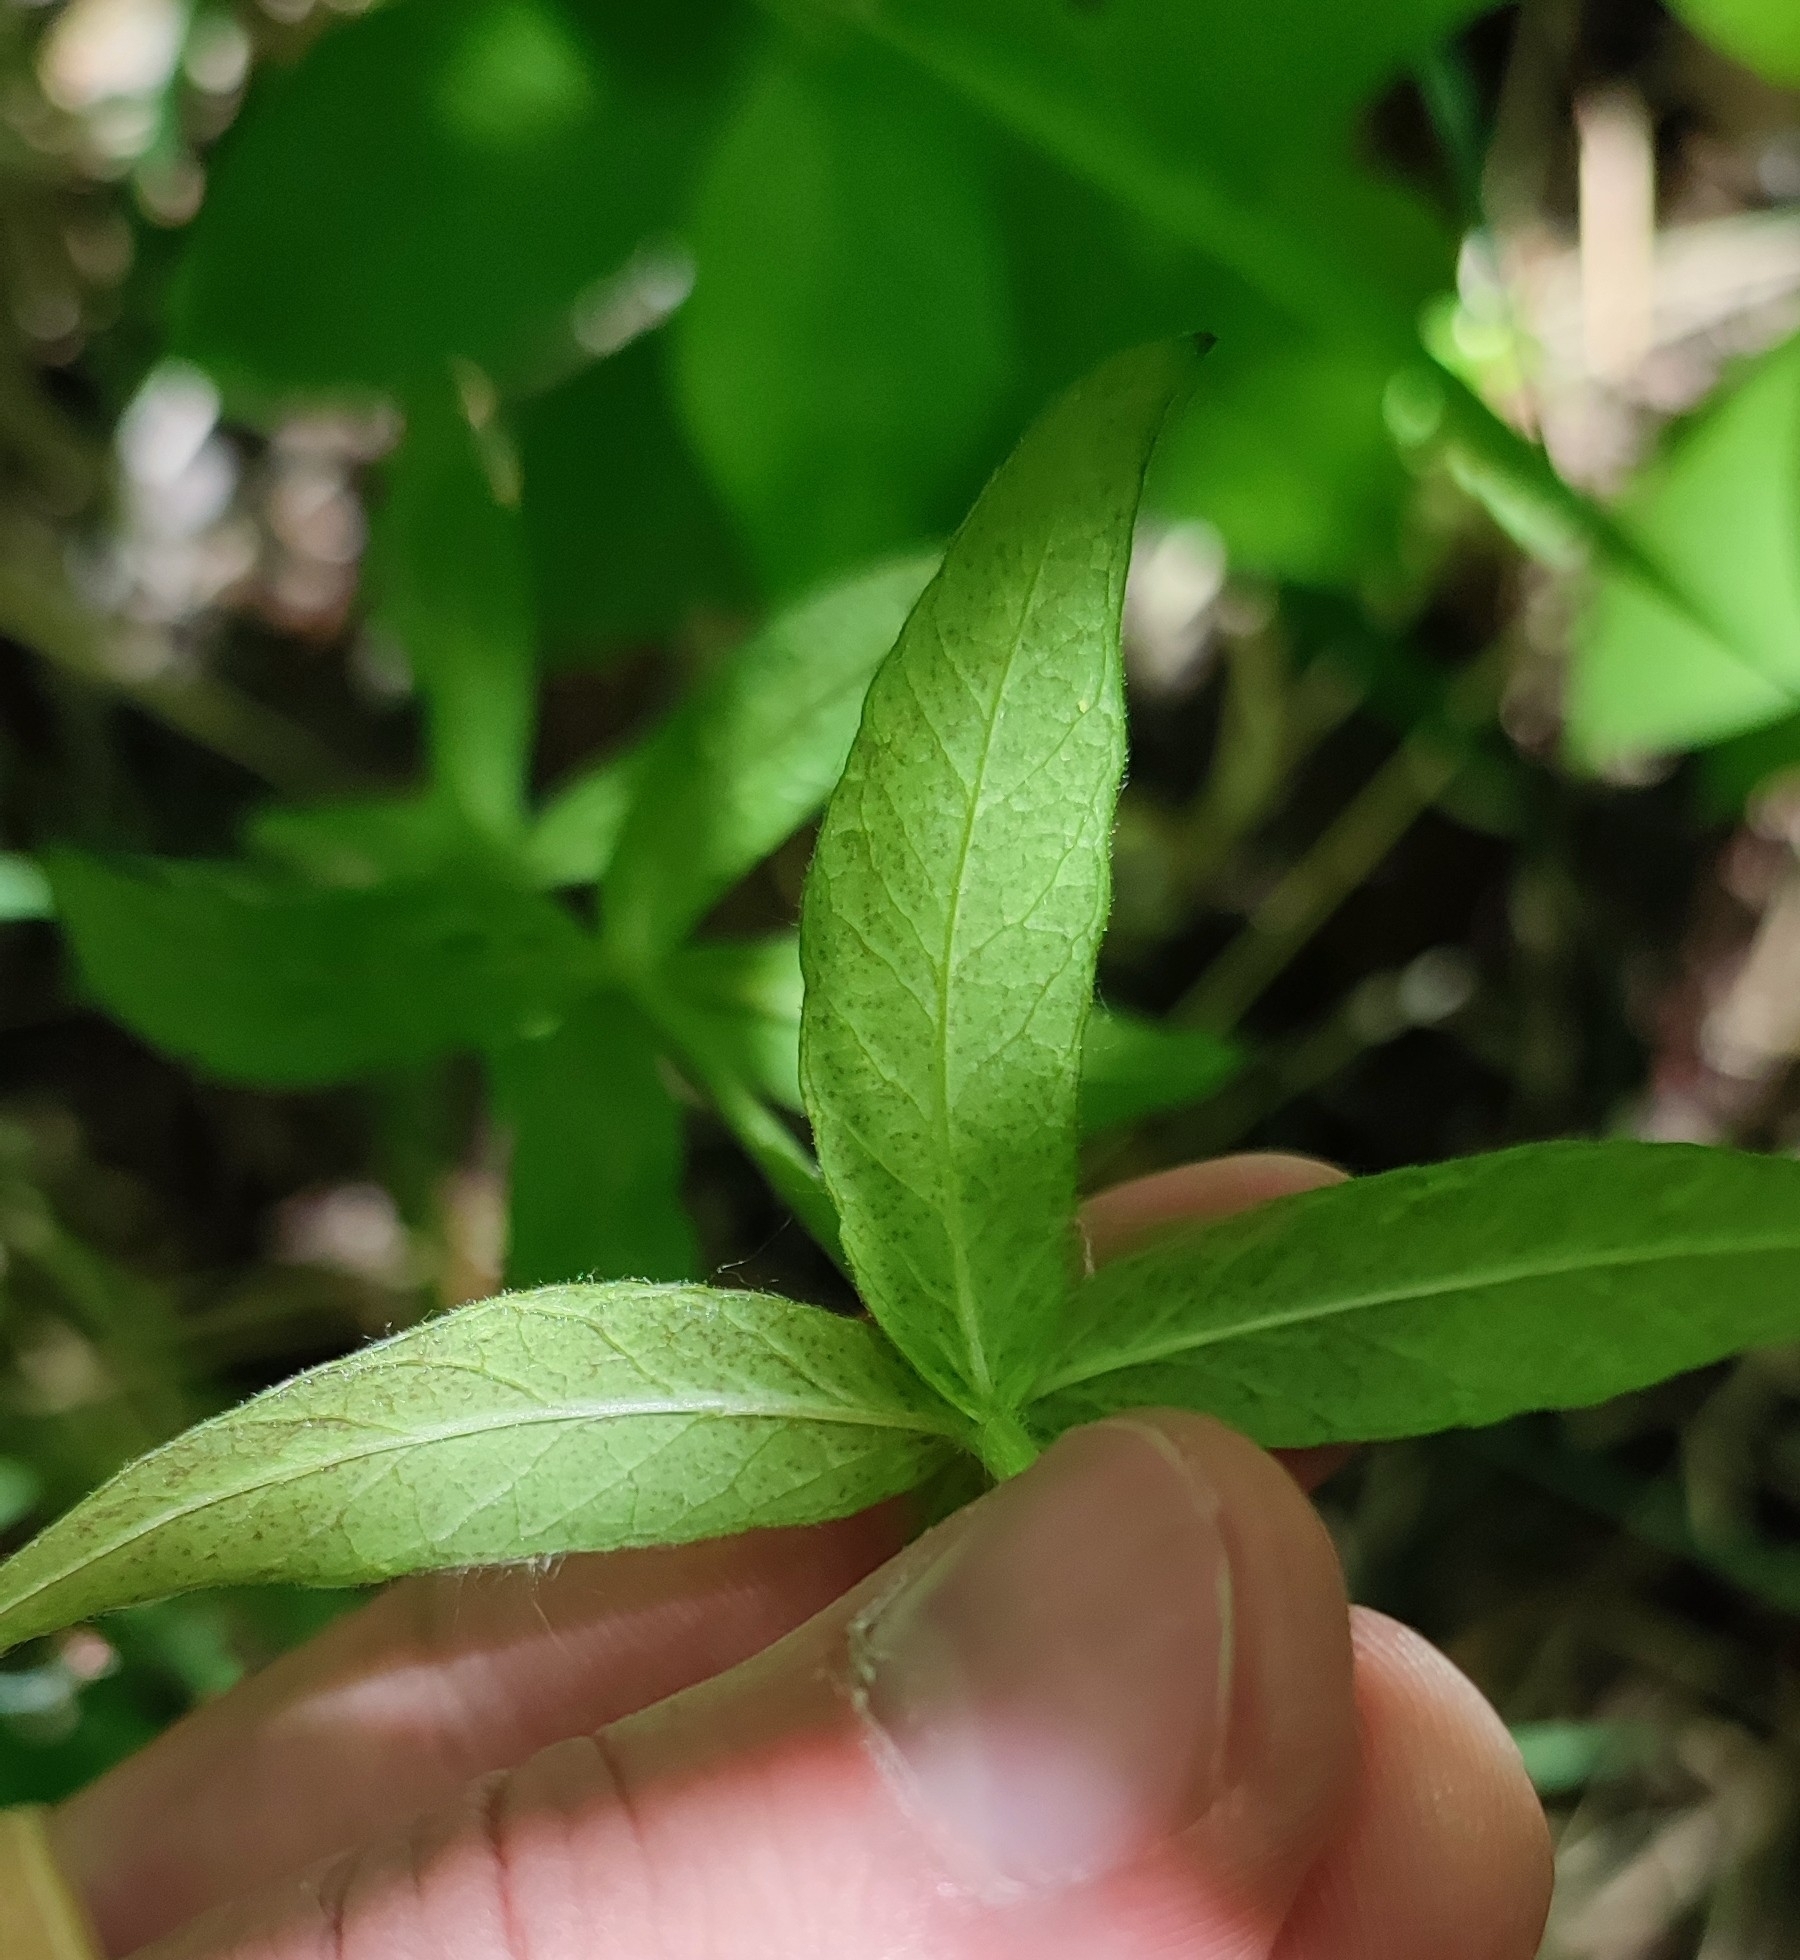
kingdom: Plantae
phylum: Tracheophyta
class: Magnoliopsida
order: Ericales
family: Primulaceae
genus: Lysimachia
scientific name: Lysimachia vulgaris
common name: Yellow loosestrife
